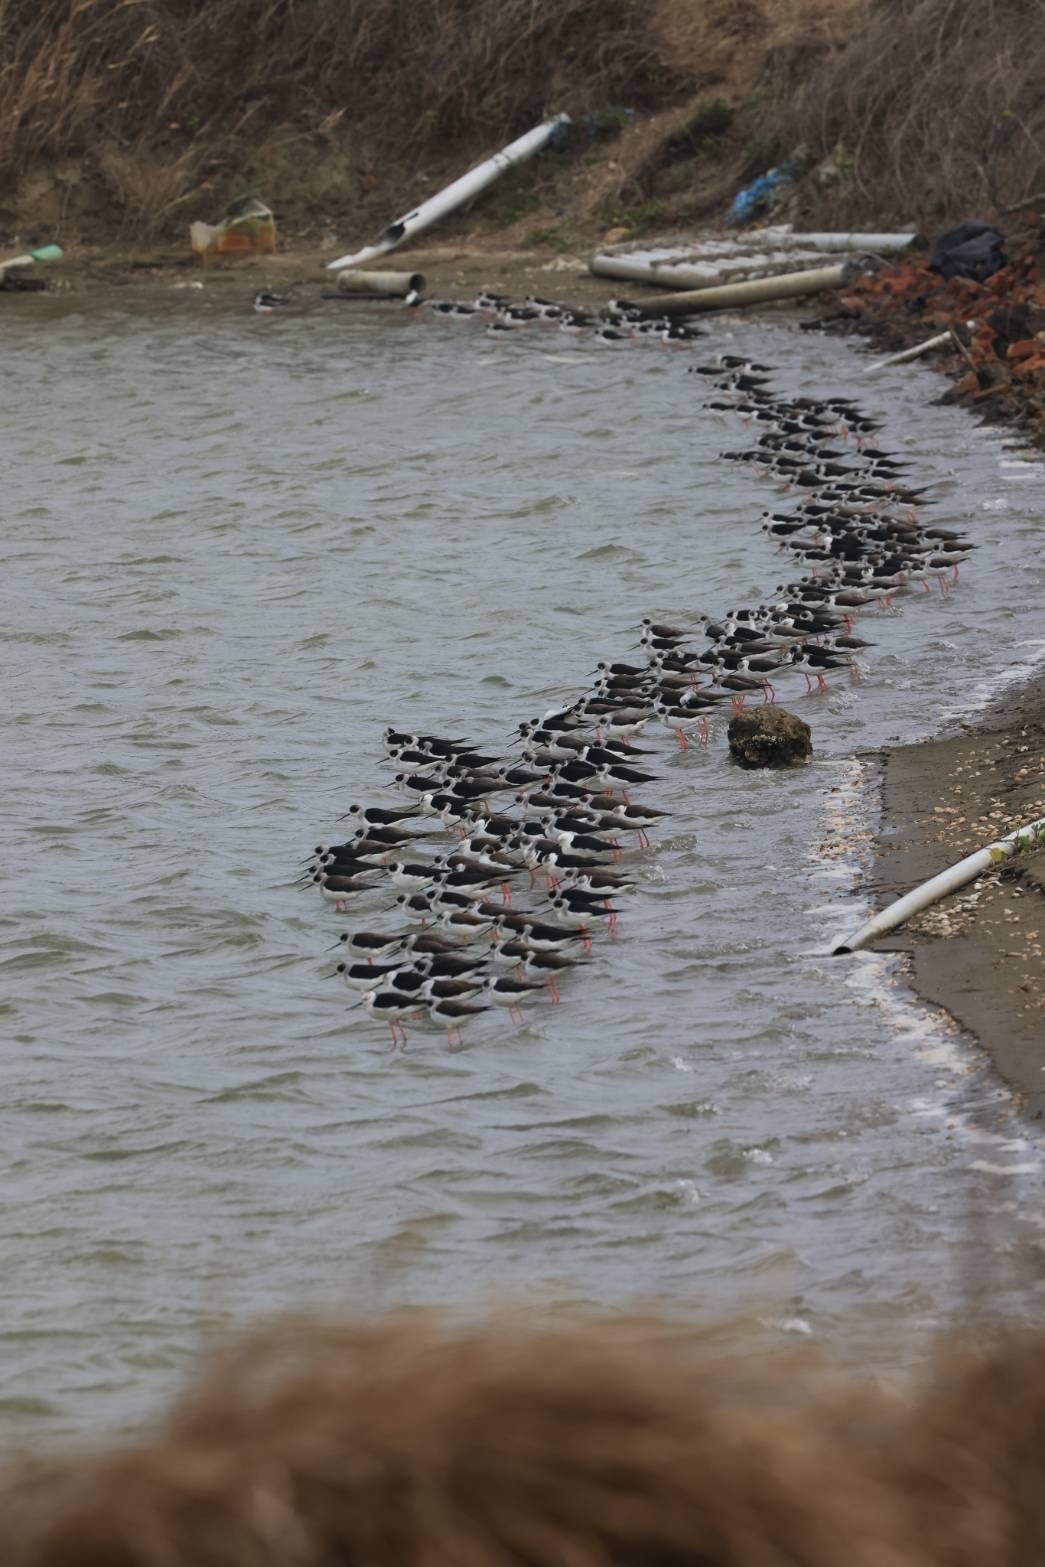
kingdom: Animalia
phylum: Chordata
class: Aves
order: Charadriiformes
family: Recurvirostridae
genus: Himantopus
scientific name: Himantopus himantopus
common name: Black-winged stilt
